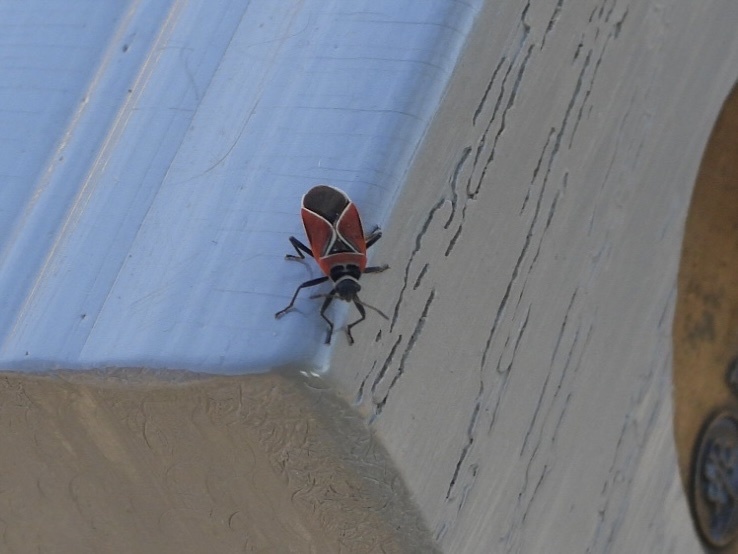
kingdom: Animalia
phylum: Arthropoda
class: Insecta
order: Hemiptera
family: Lygaeidae
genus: Neacoryphus
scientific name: Neacoryphus bicrucis
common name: Lygaeid bug
